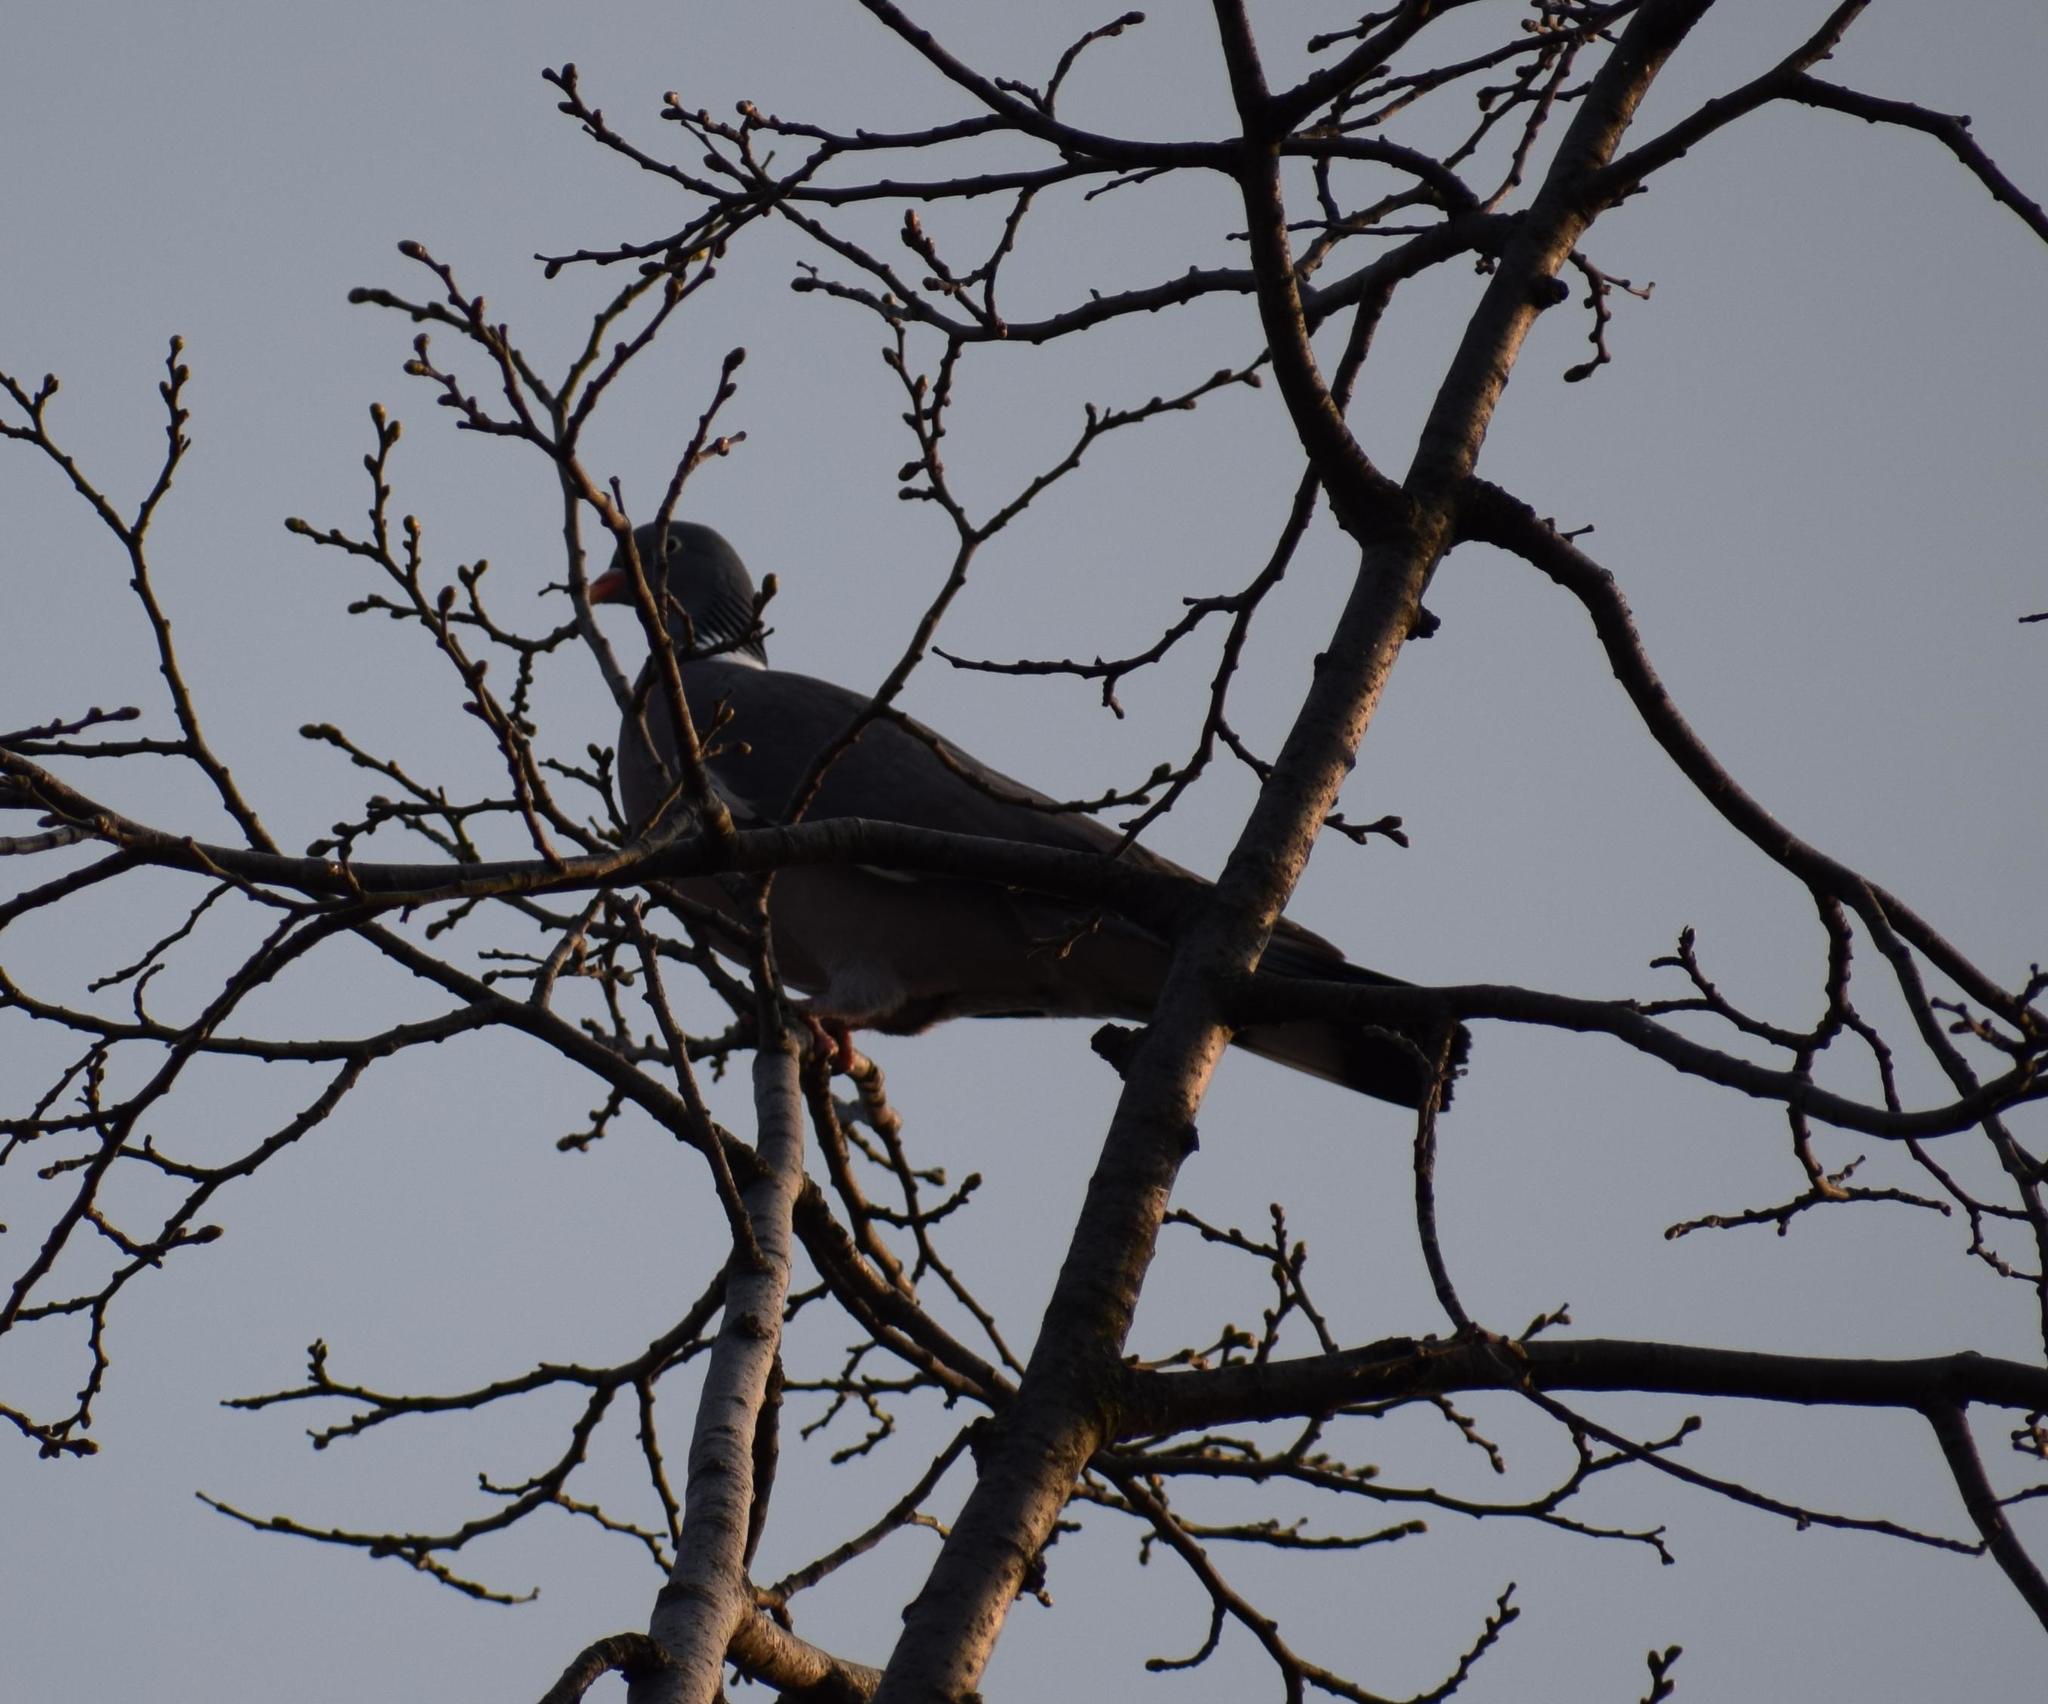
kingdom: Animalia
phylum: Chordata
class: Aves
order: Columbiformes
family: Columbidae
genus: Columba
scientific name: Columba palumbus
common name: Common wood pigeon
